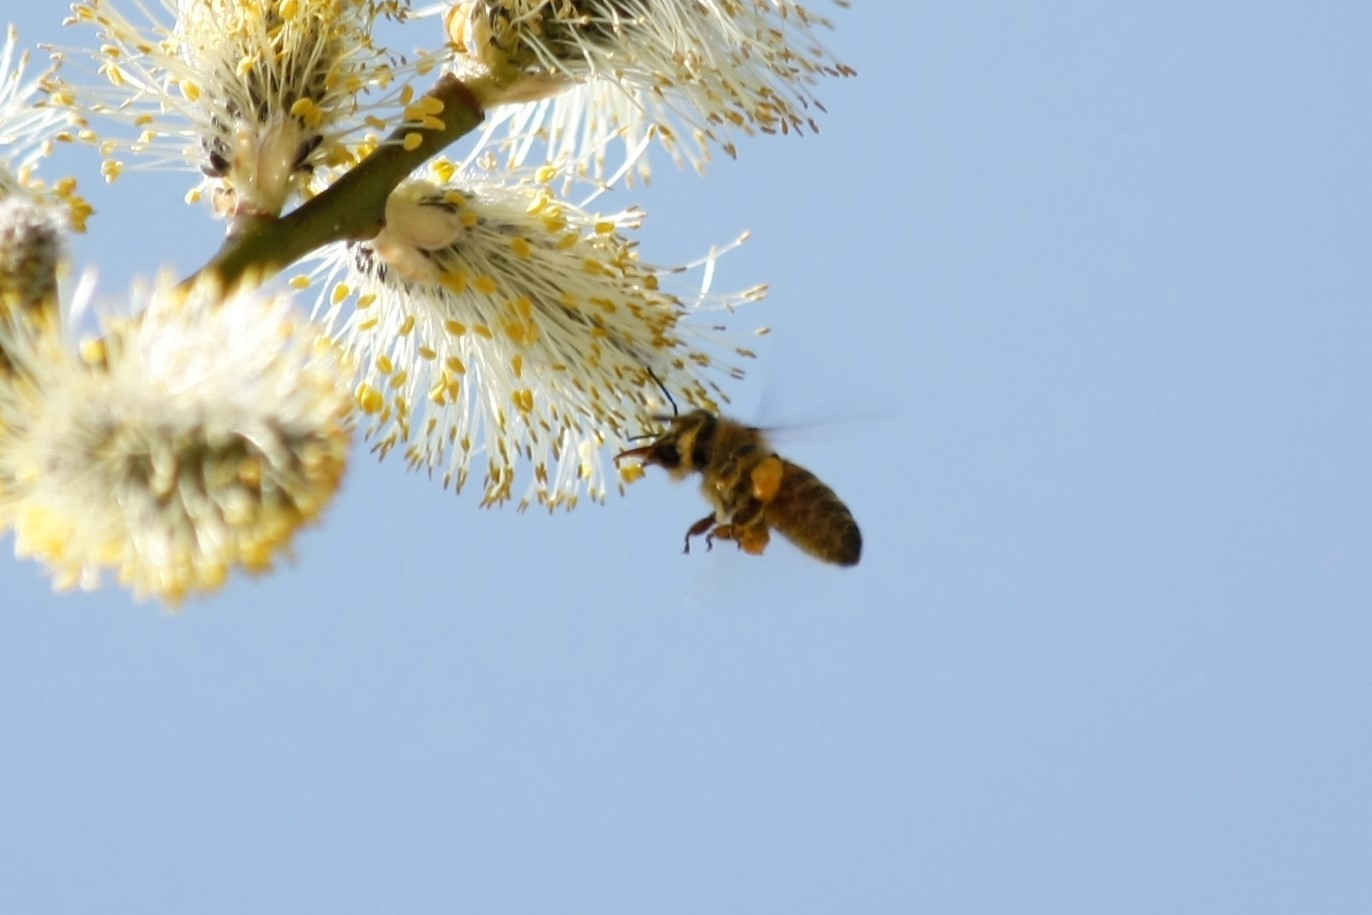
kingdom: Animalia
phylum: Arthropoda
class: Insecta
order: Hymenoptera
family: Apidae
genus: Apis
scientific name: Apis mellifera
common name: Honey bee
